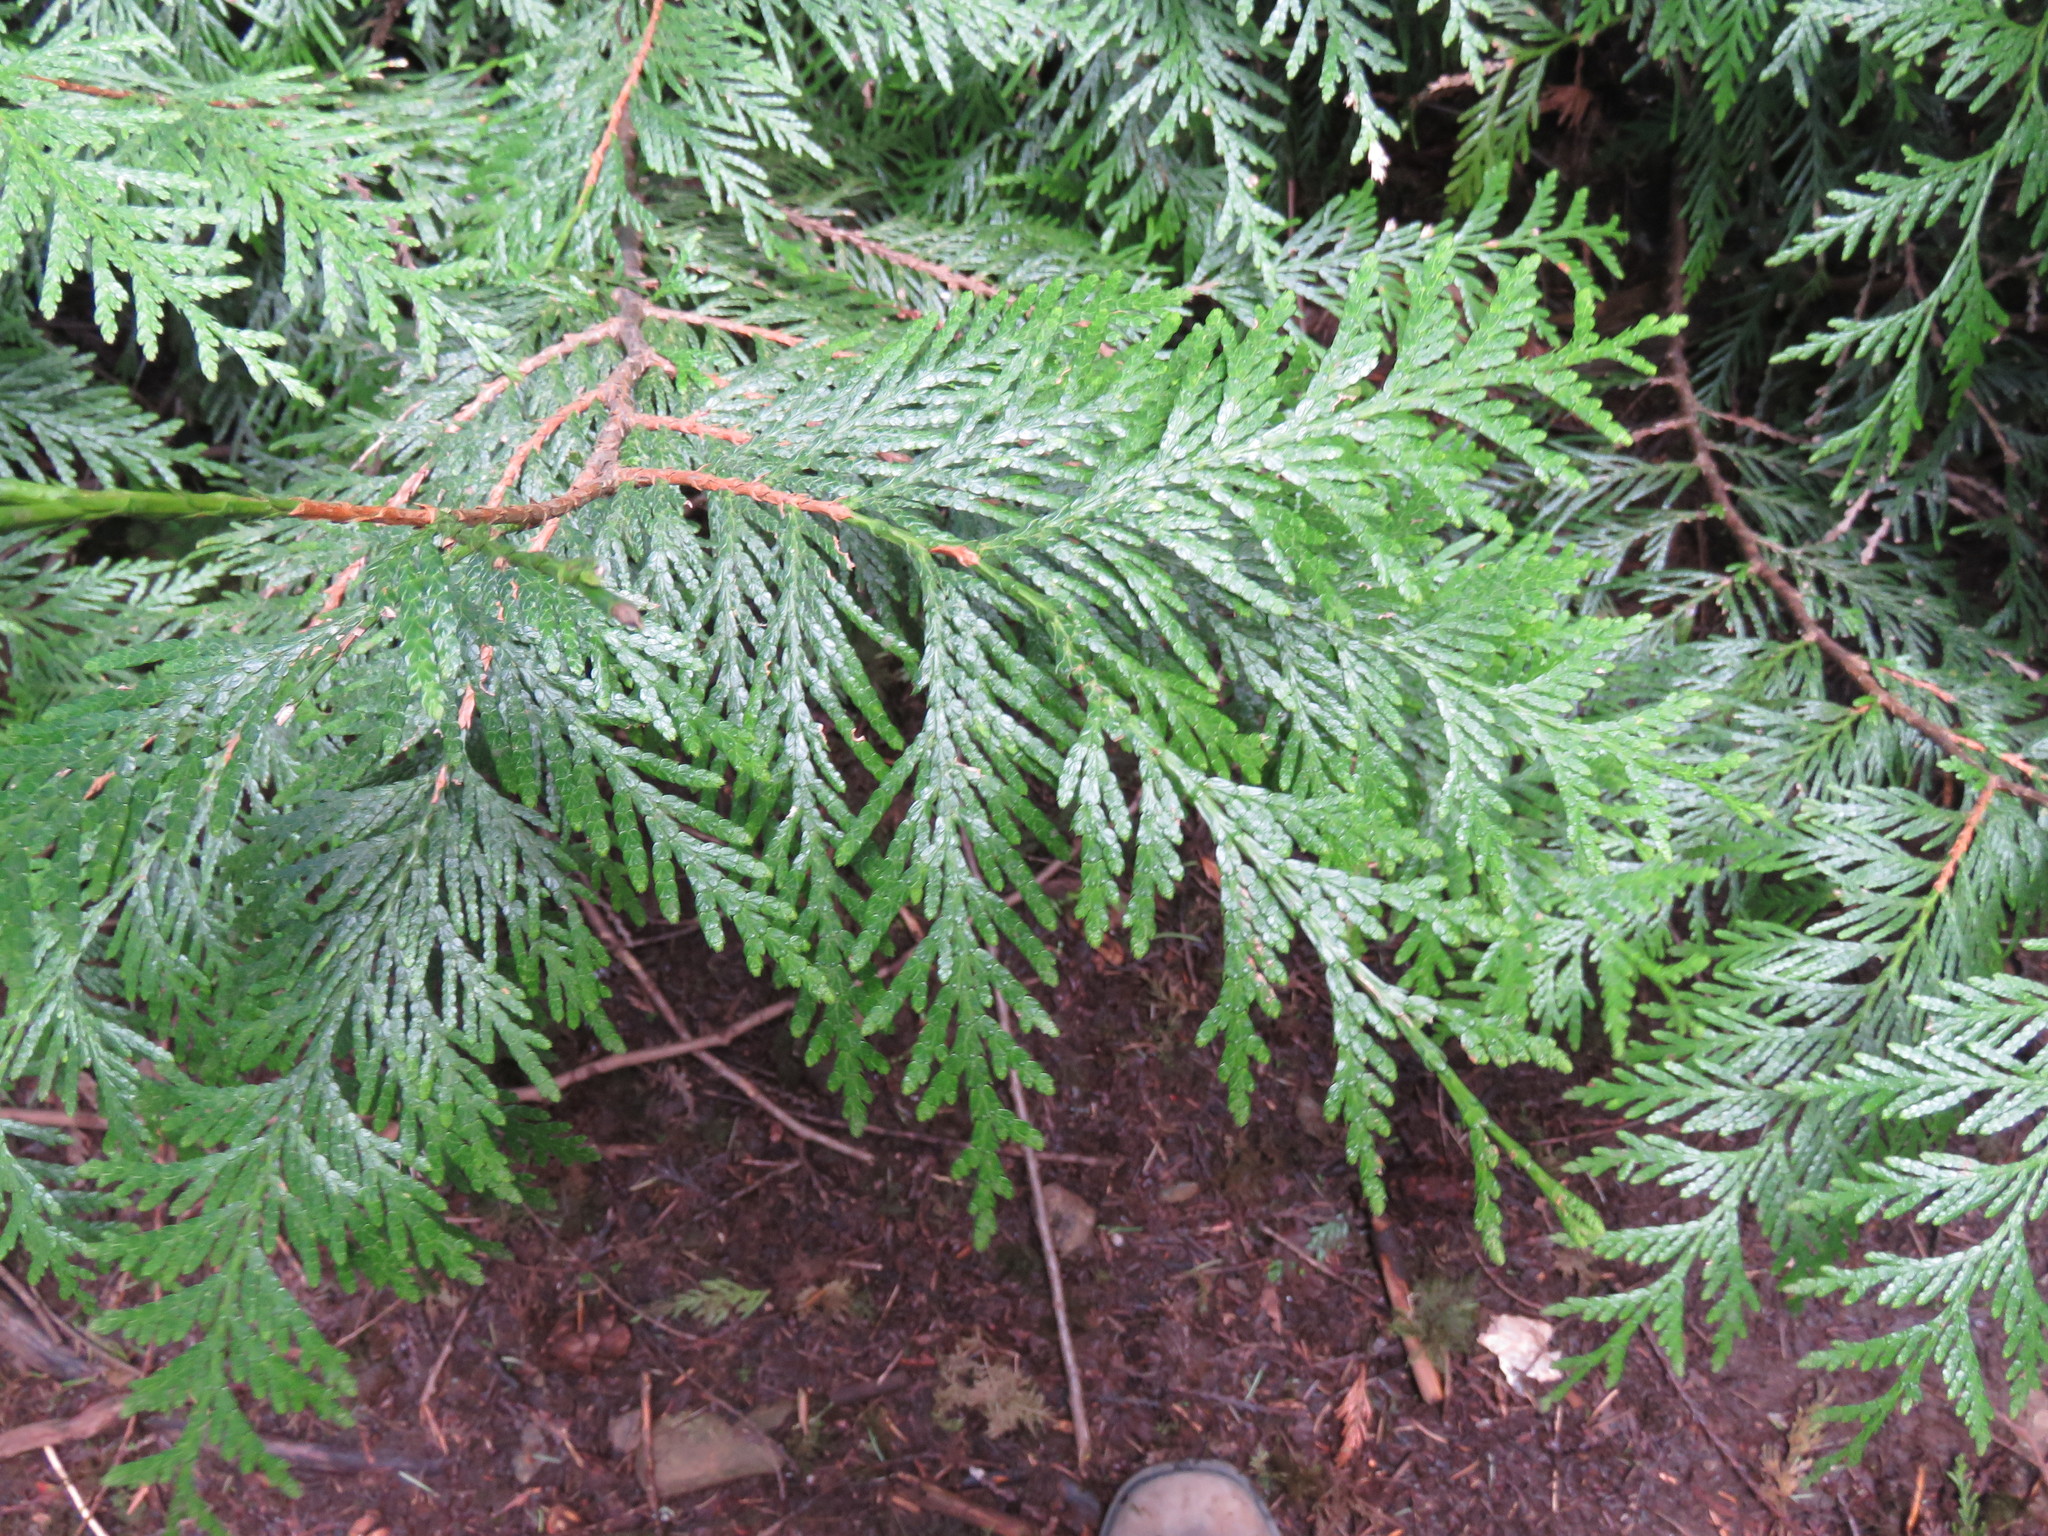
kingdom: Plantae
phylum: Tracheophyta
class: Pinopsida
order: Pinales
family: Cupressaceae
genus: Thuja
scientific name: Thuja plicata
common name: Western red-cedar
